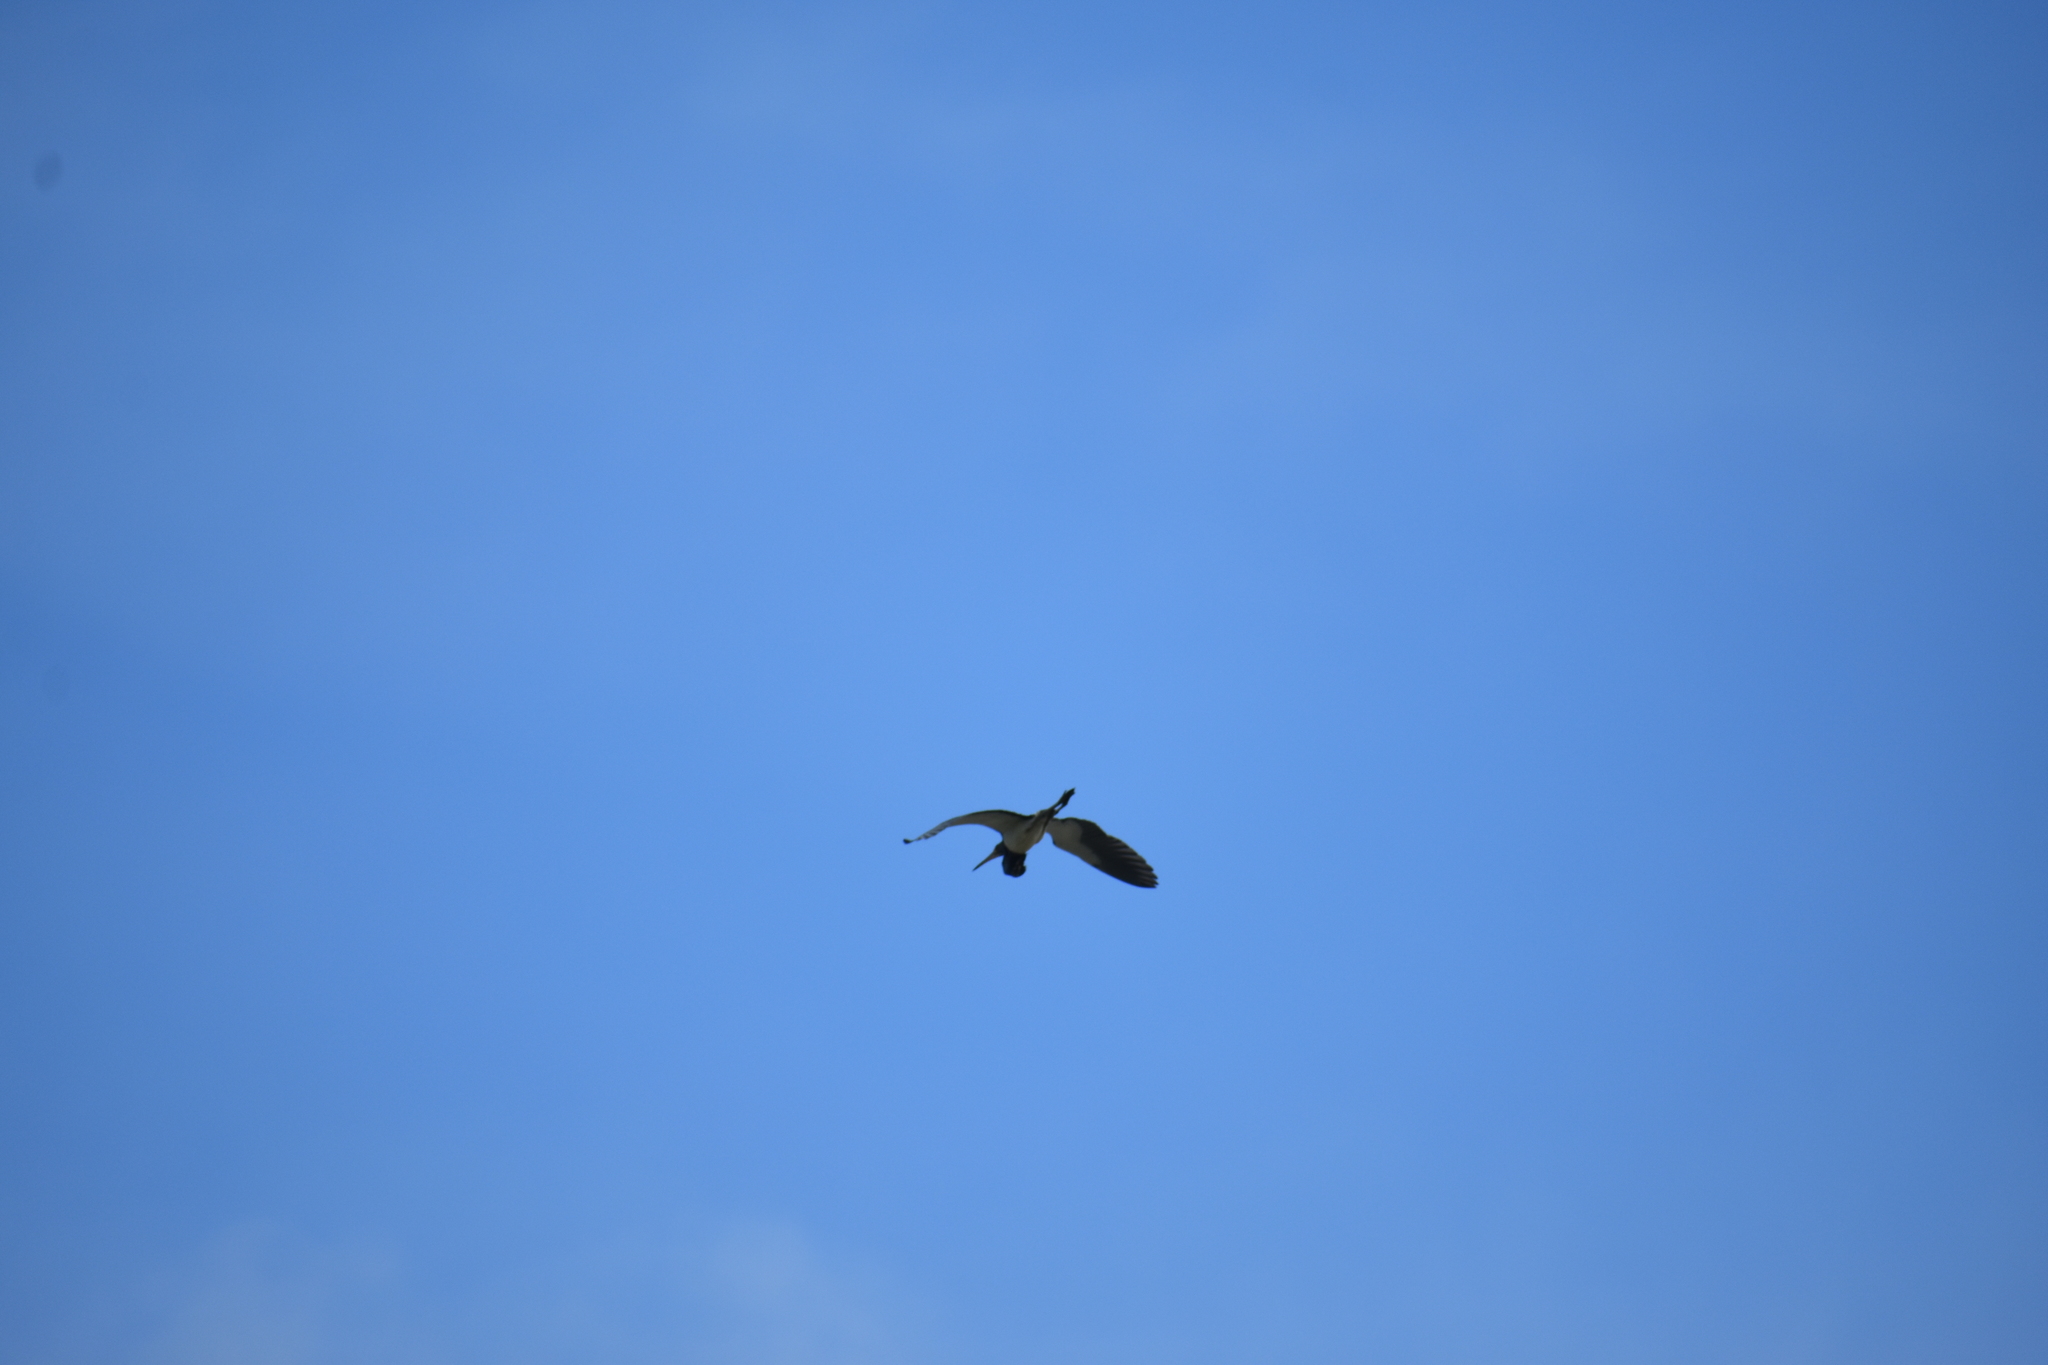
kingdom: Animalia
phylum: Chordata
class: Aves
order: Pelecaniformes
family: Ardeidae
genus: Egretta
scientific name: Egretta tricolor
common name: Tricolored heron
